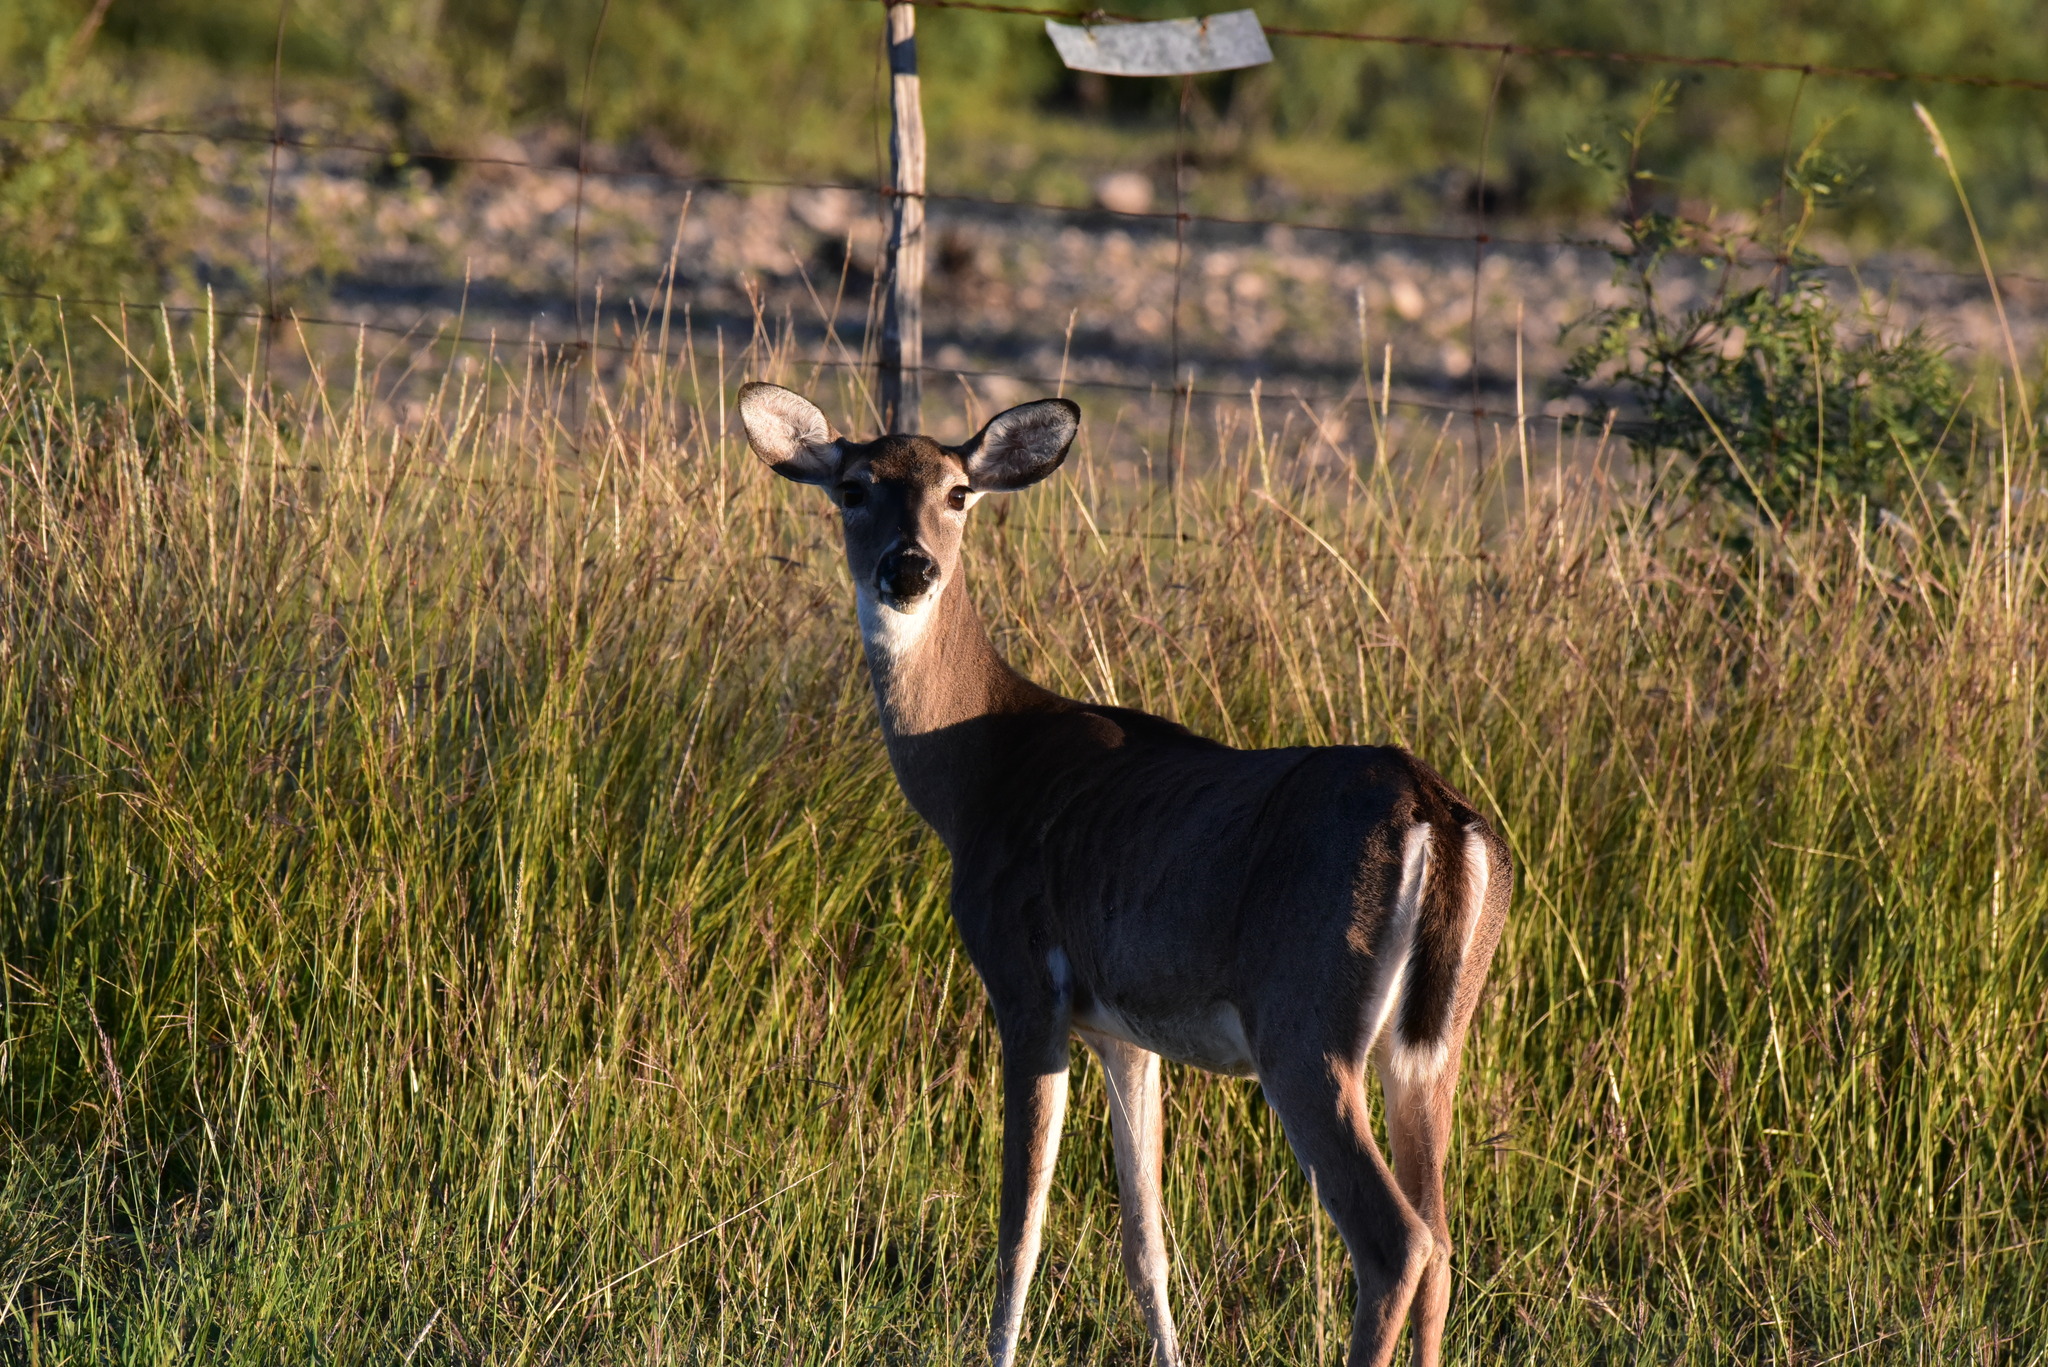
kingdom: Animalia
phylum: Chordata
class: Mammalia
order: Artiodactyla
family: Cervidae
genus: Odocoileus
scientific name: Odocoileus virginianus
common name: White-tailed deer
